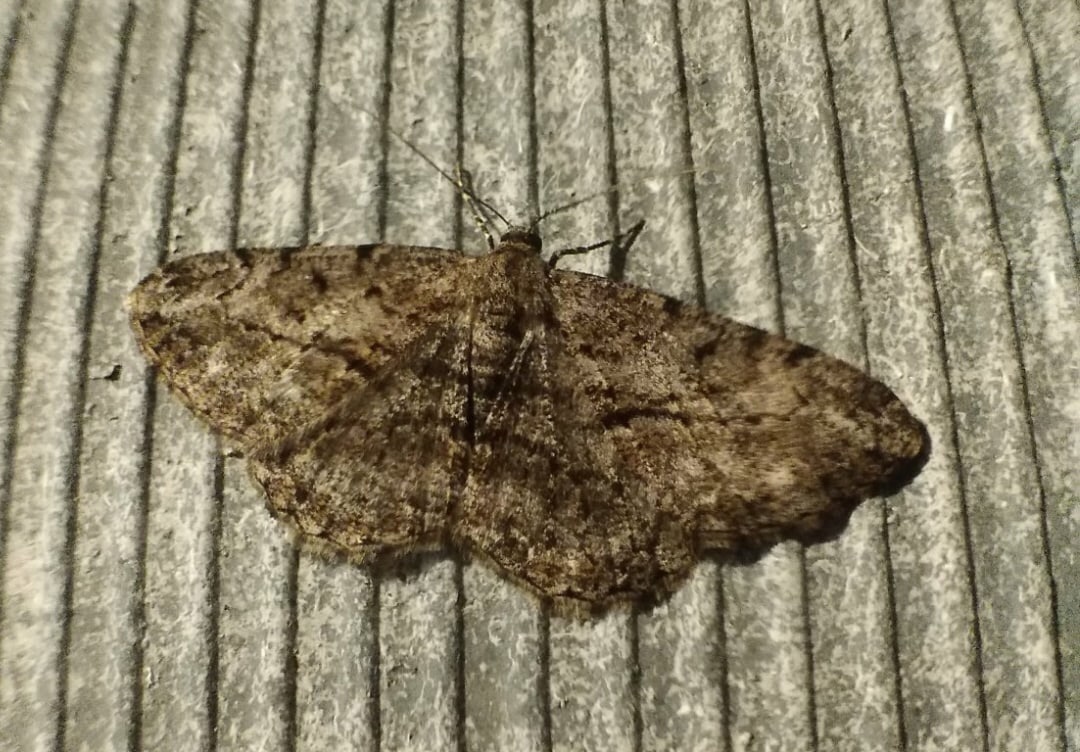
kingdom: Animalia
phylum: Arthropoda
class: Insecta
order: Lepidoptera
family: Geometridae
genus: Peribatodes
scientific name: Peribatodes rhomboidaria
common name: Willow beauty
